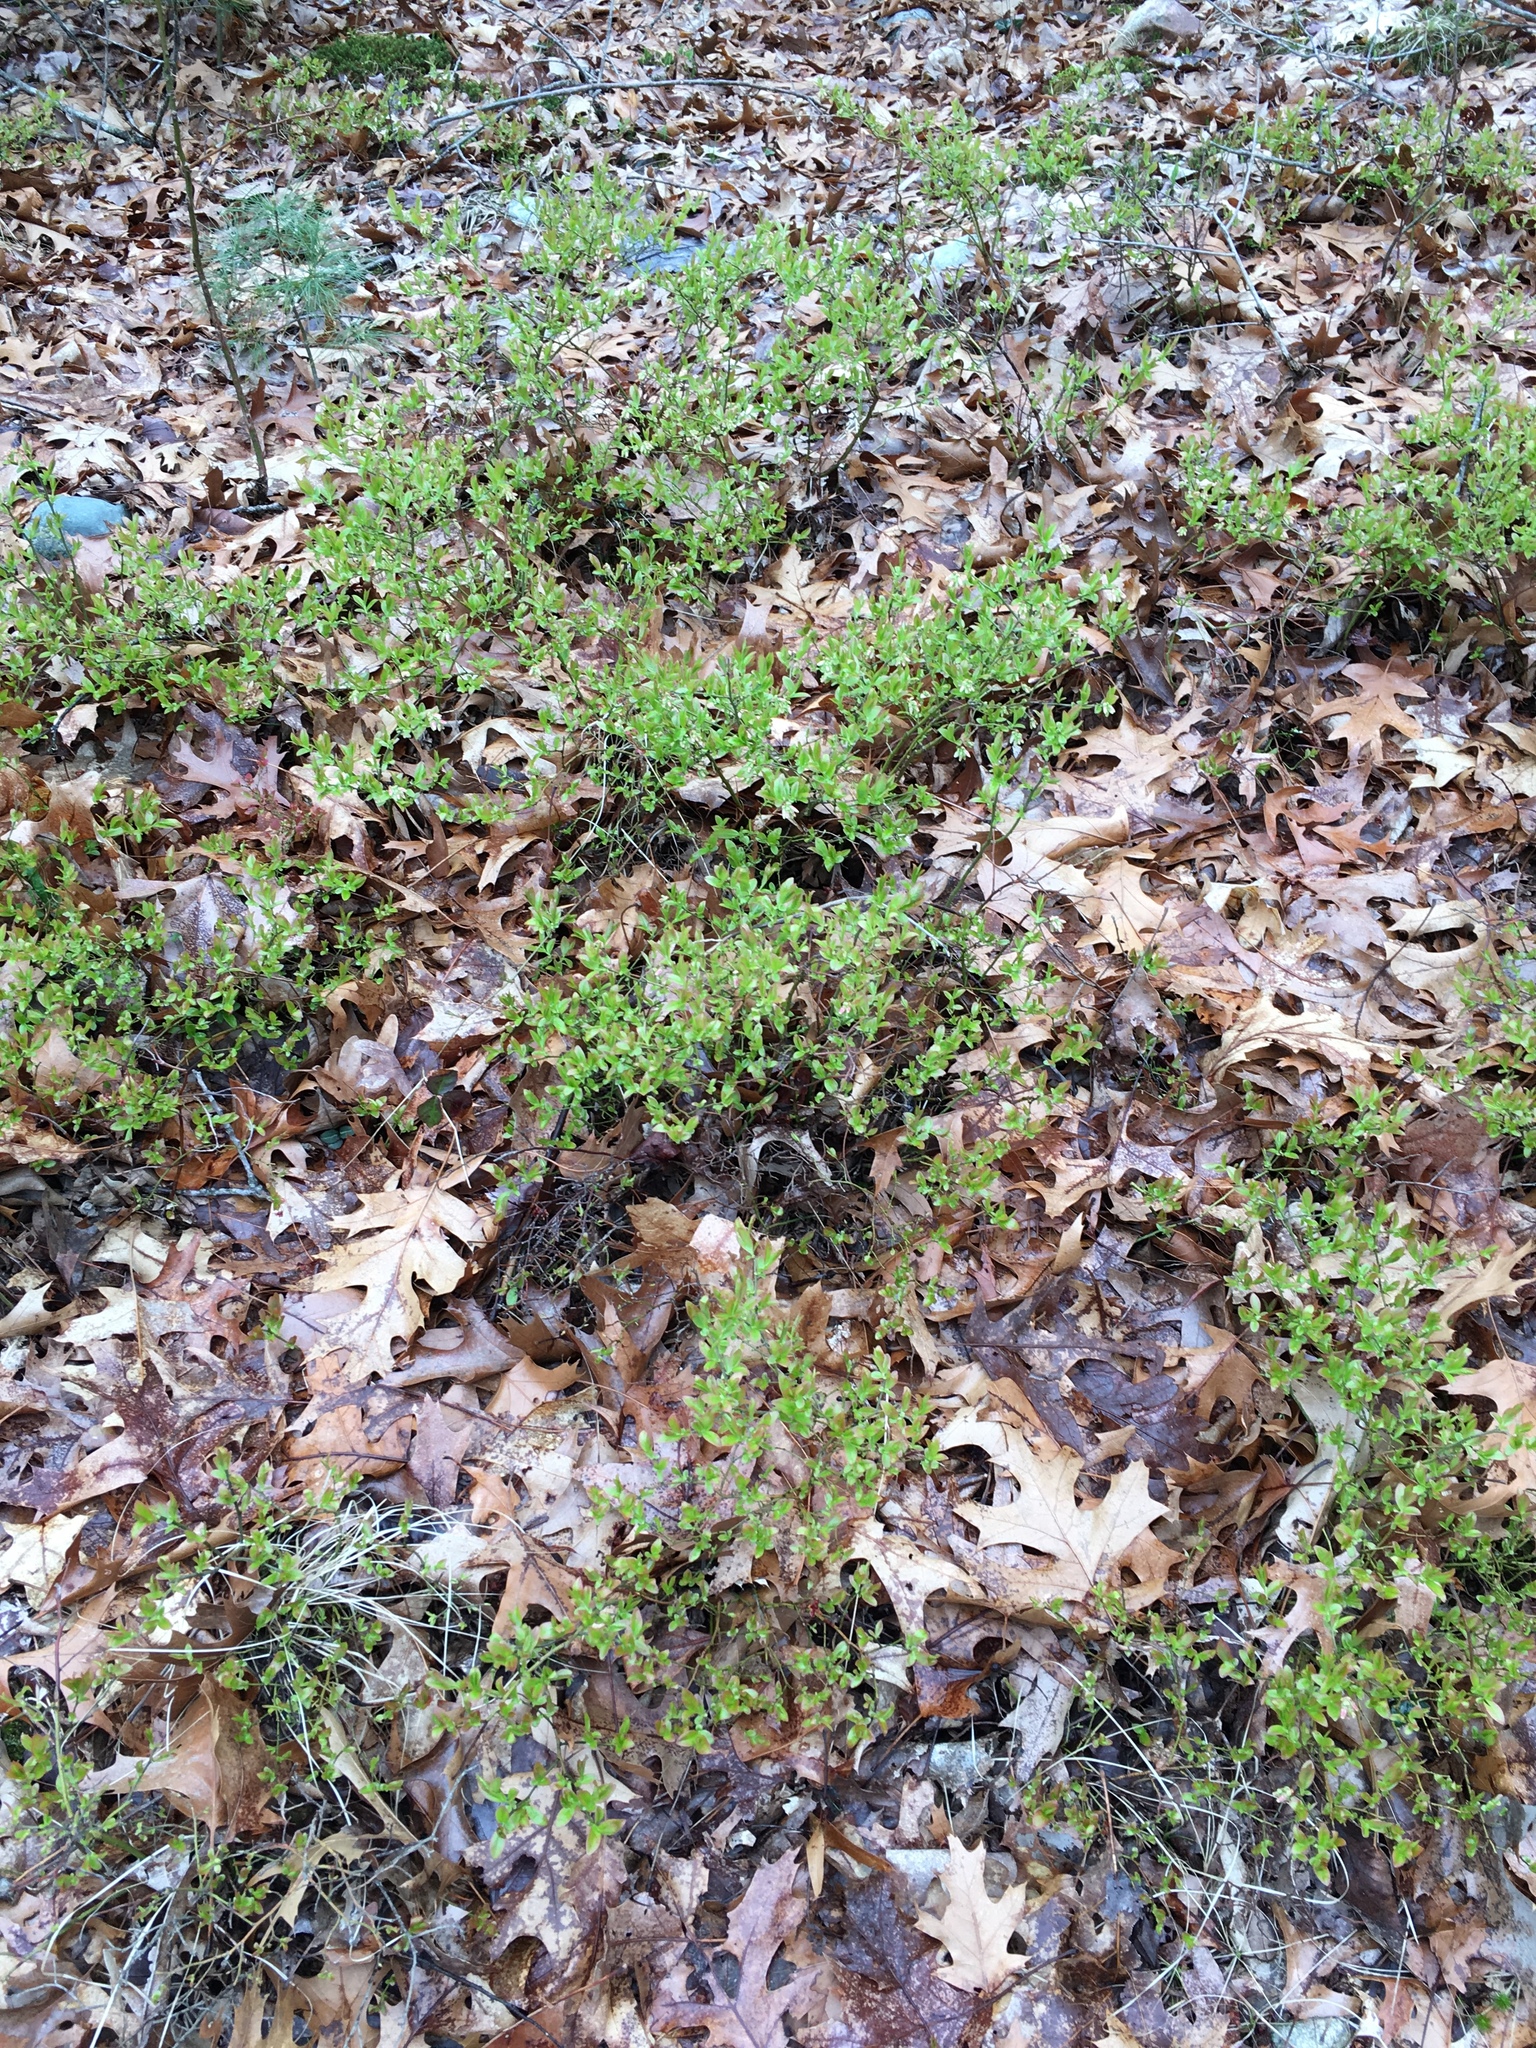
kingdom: Plantae
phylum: Tracheophyta
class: Magnoliopsida
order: Ericales
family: Ericaceae
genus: Vaccinium
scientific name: Vaccinium angustifolium
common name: Early lowbush blueberry
